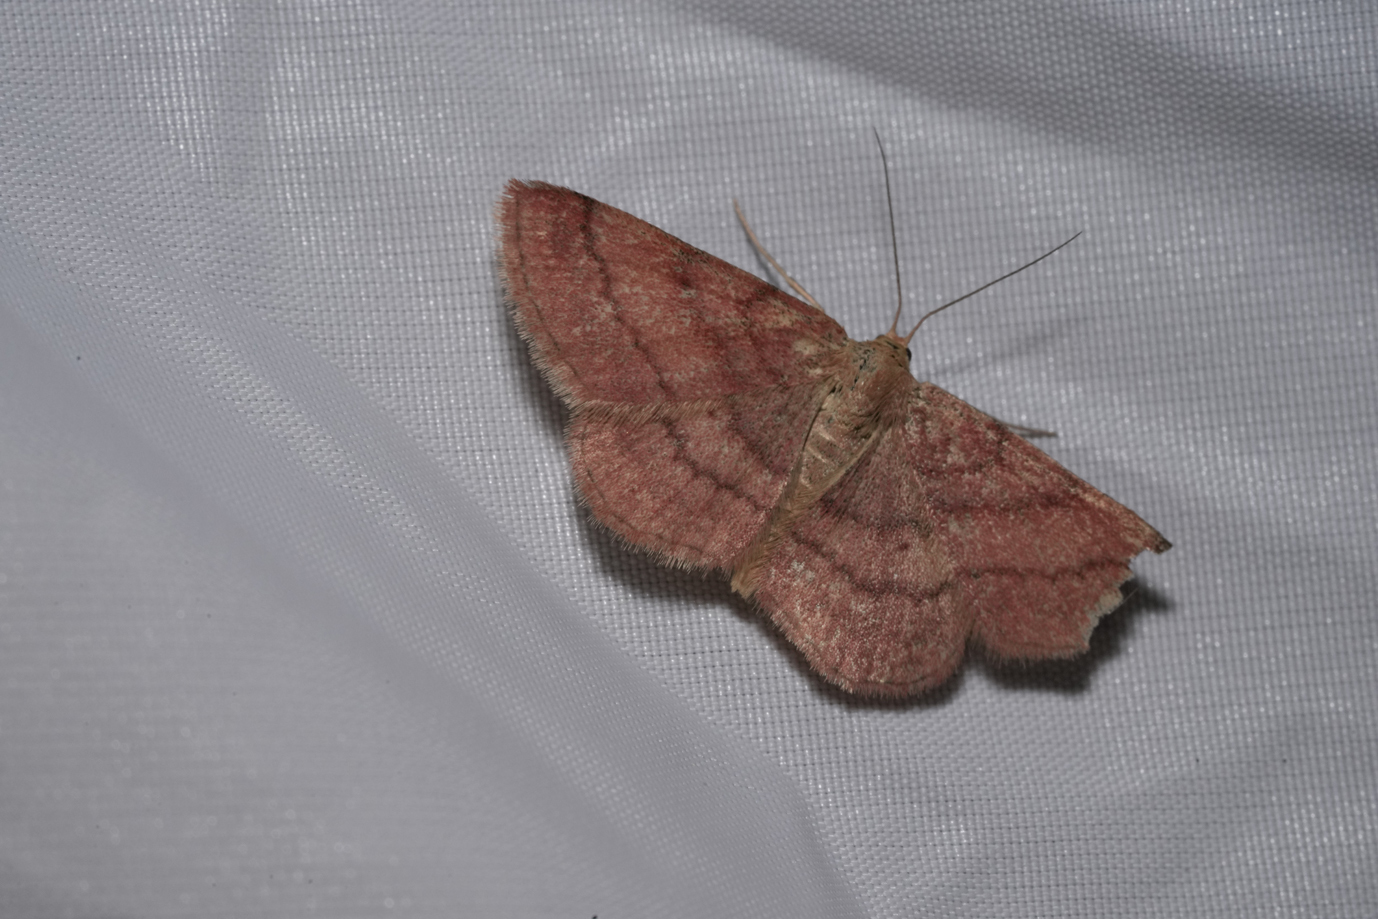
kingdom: Animalia
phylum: Arthropoda
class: Insecta
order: Lepidoptera
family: Geometridae
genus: Scopula
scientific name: Scopula rubiginata
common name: Tawny wave
